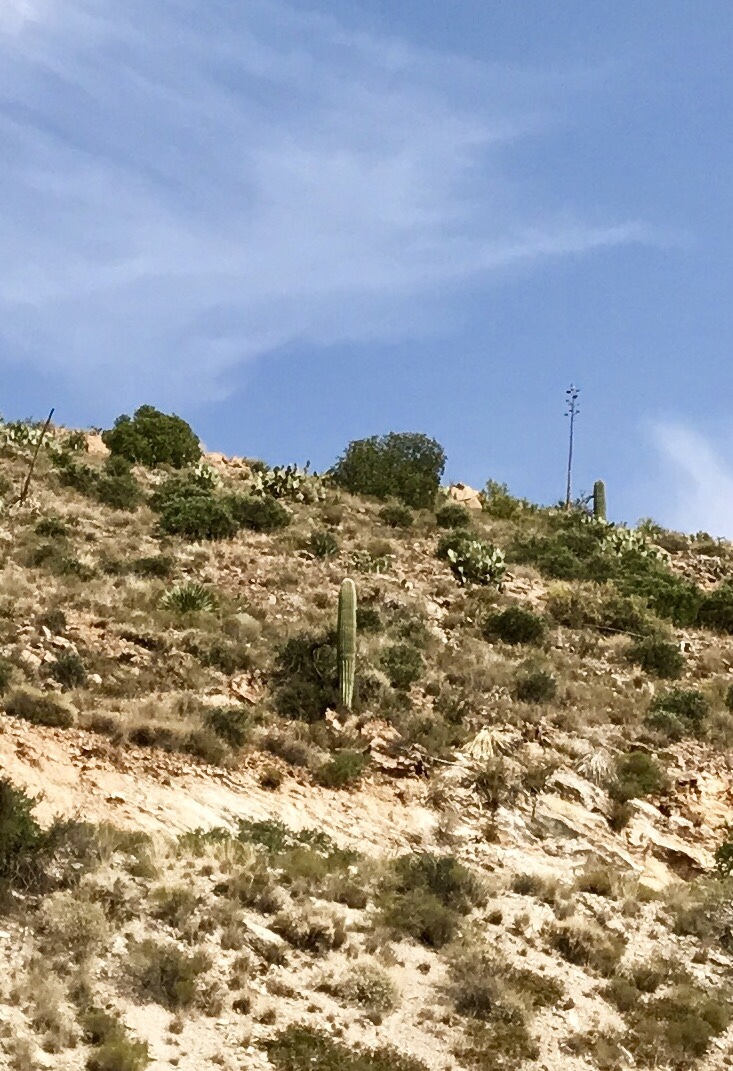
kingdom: Plantae
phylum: Tracheophyta
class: Magnoliopsida
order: Caryophyllales
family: Cactaceae
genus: Carnegiea
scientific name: Carnegiea gigantea
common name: Saguaro
